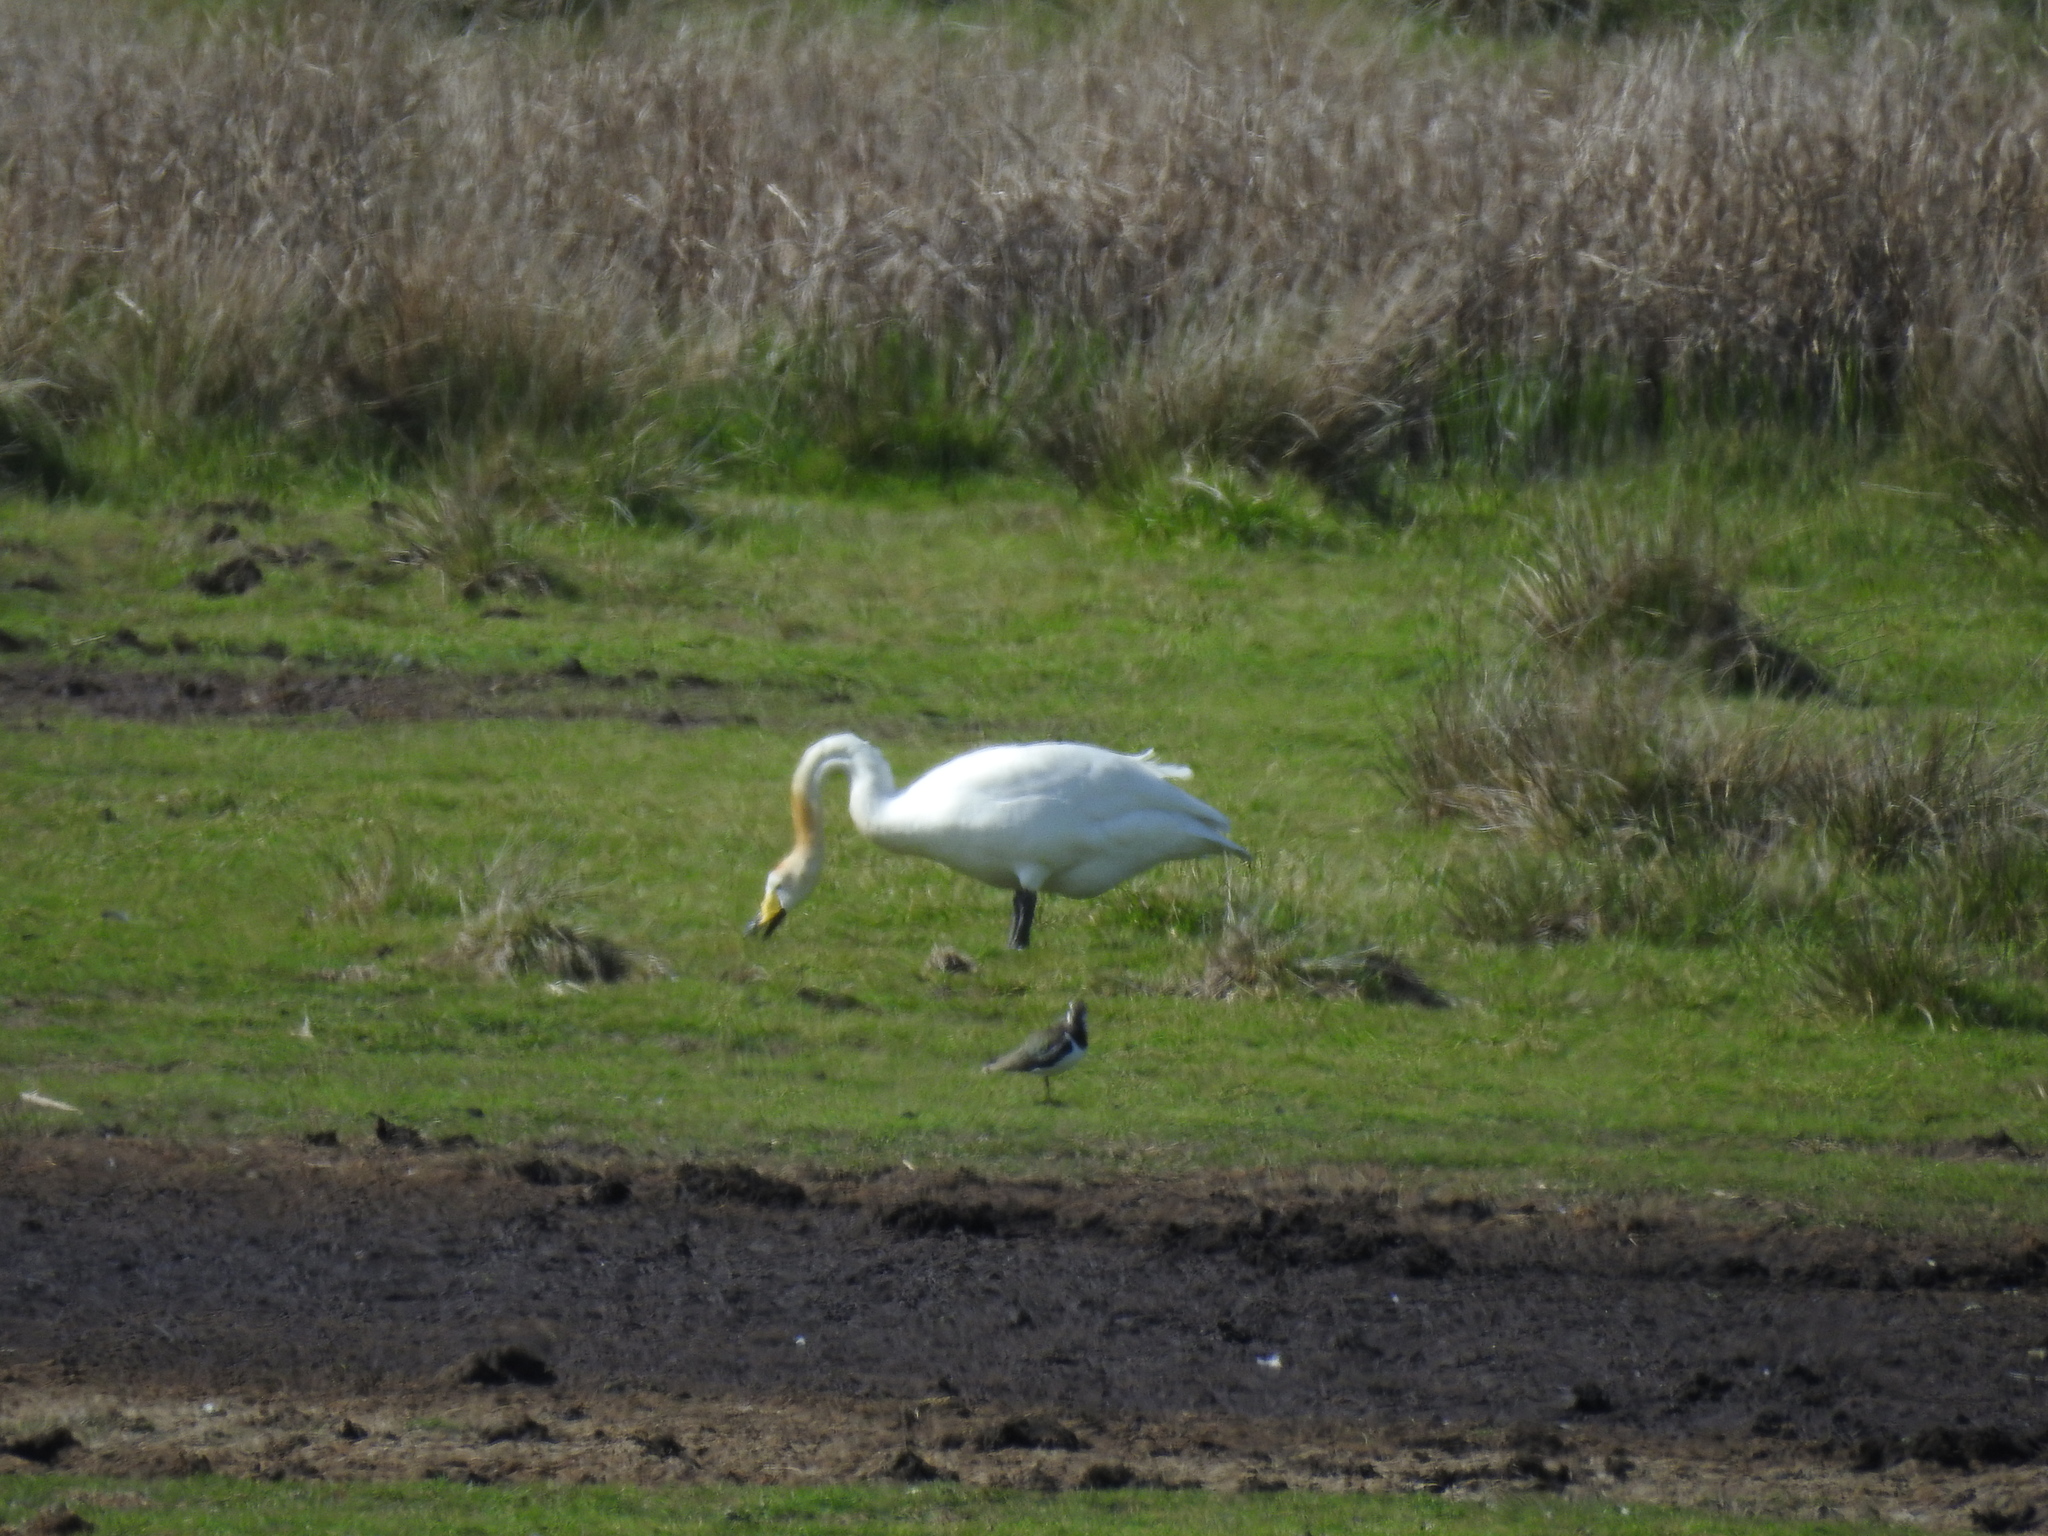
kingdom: Animalia
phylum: Chordata
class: Aves
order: Anseriformes
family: Anatidae
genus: Cygnus
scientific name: Cygnus cygnus
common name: Whooper swan
